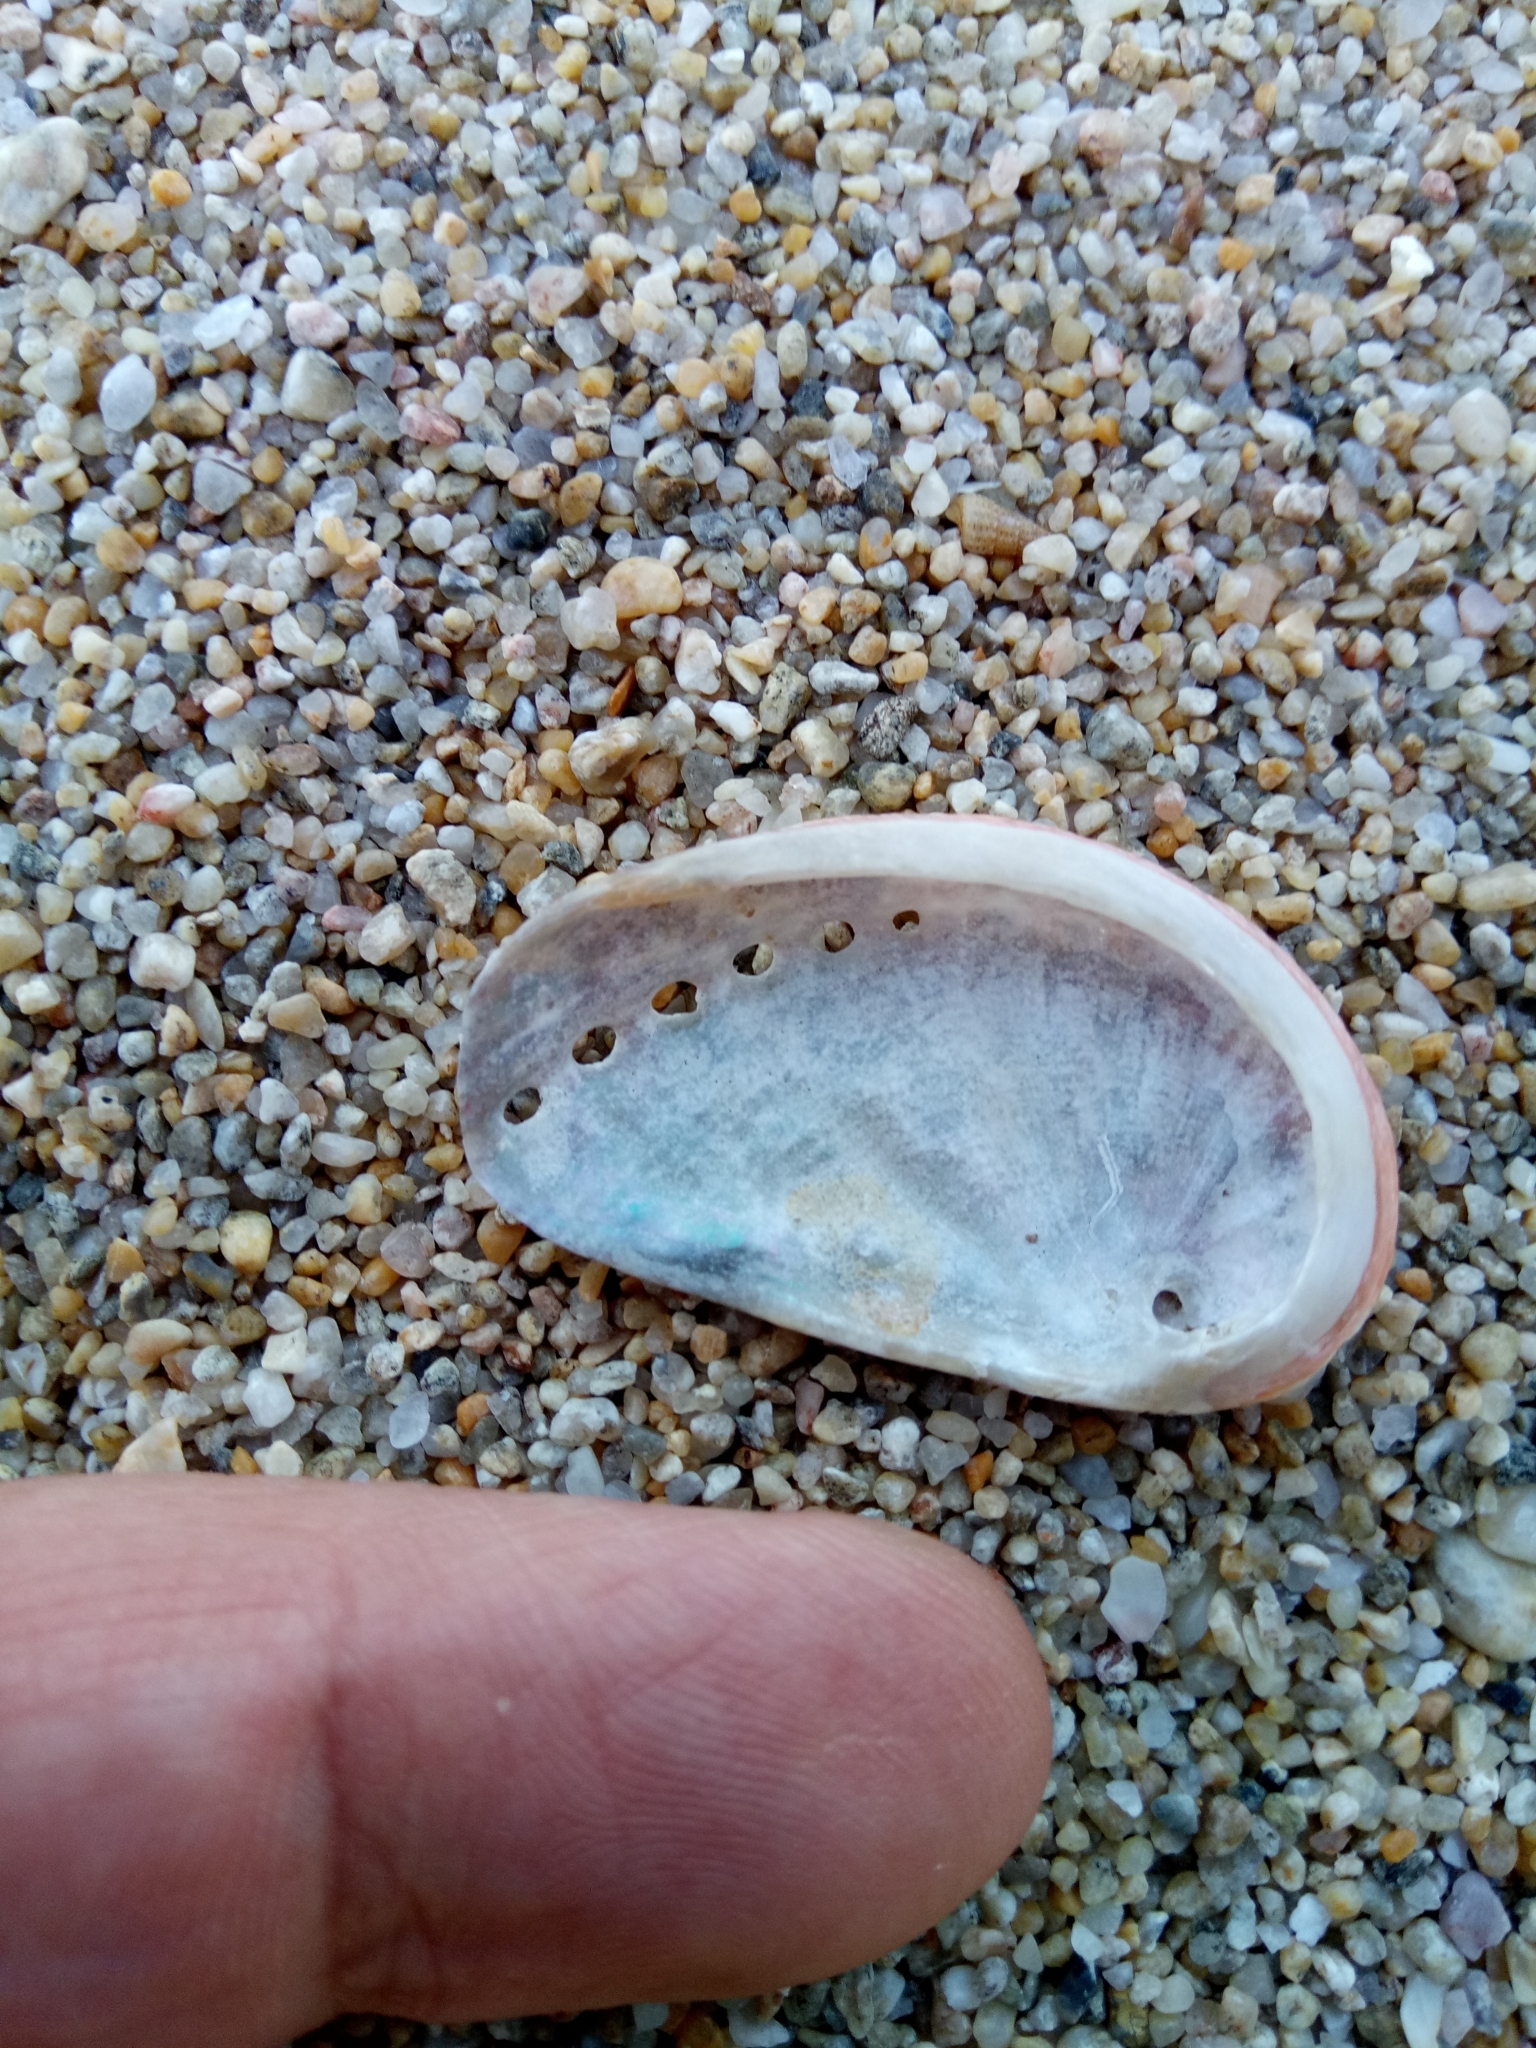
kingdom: Animalia
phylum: Mollusca
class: Gastropoda
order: Lepetellida
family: Haliotidae
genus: Haliotis
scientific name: Haliotis tuberculata
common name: Green ormer
